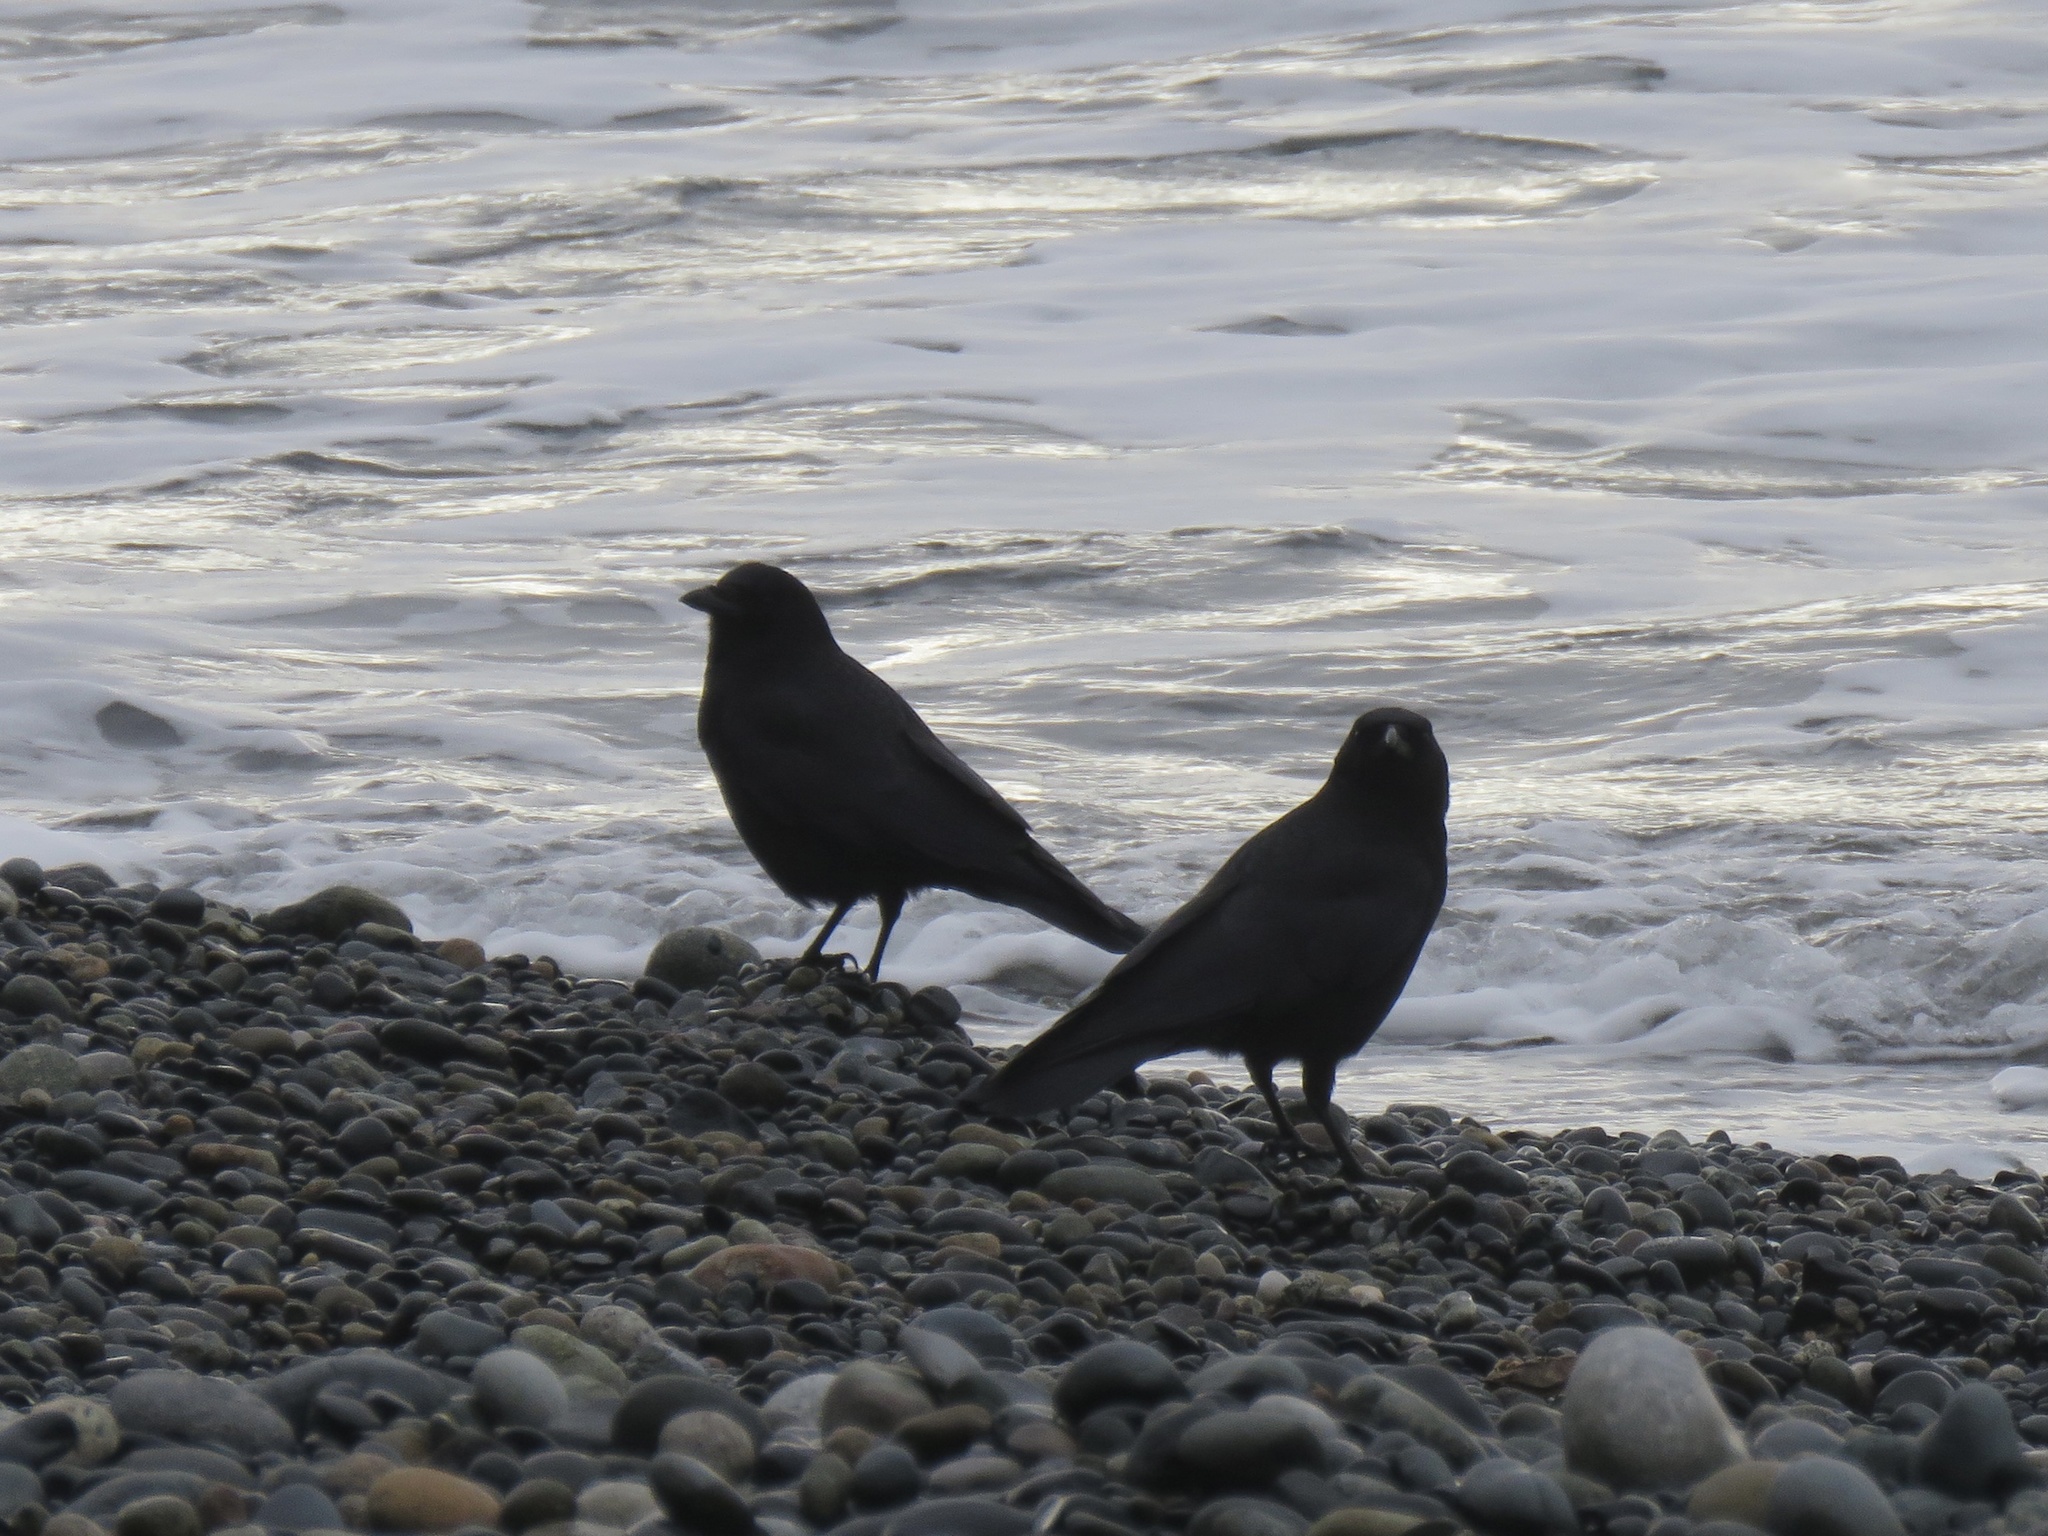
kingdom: Animalia
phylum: Chordata
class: Aves
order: Passeriformes
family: Corvidae
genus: Corvus
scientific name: Corvus brachyrhynchos
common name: American crow
